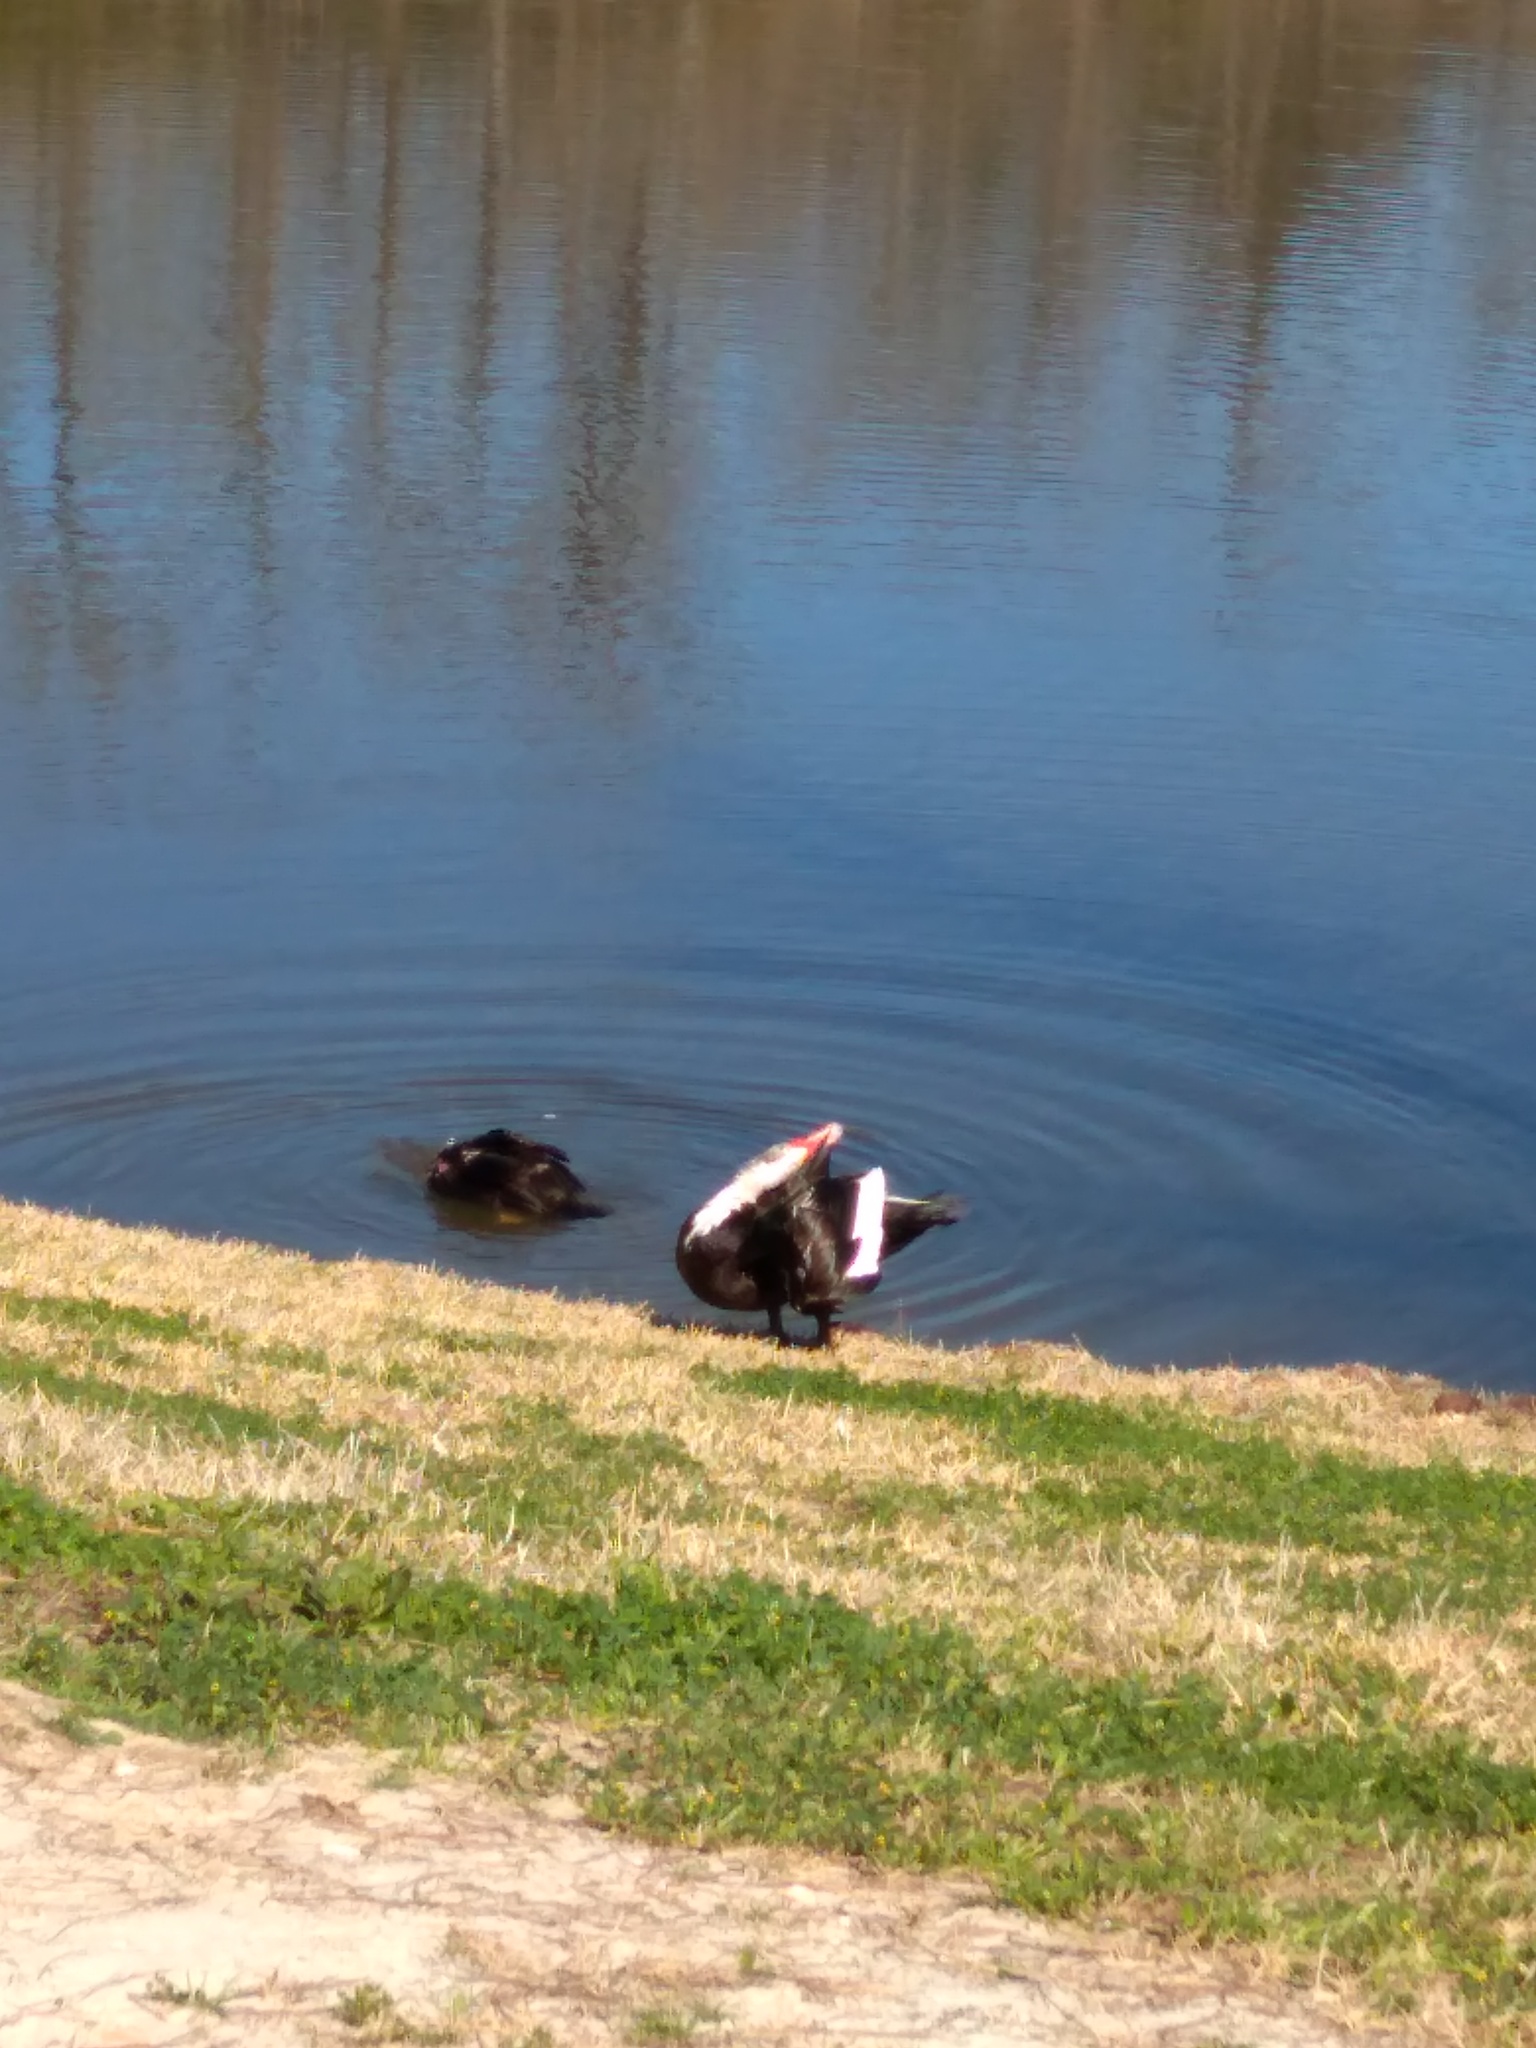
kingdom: Animalia
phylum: Chordata
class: Aves
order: Anseriformes
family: Anatidae
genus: Cairina
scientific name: Cairina moschata
